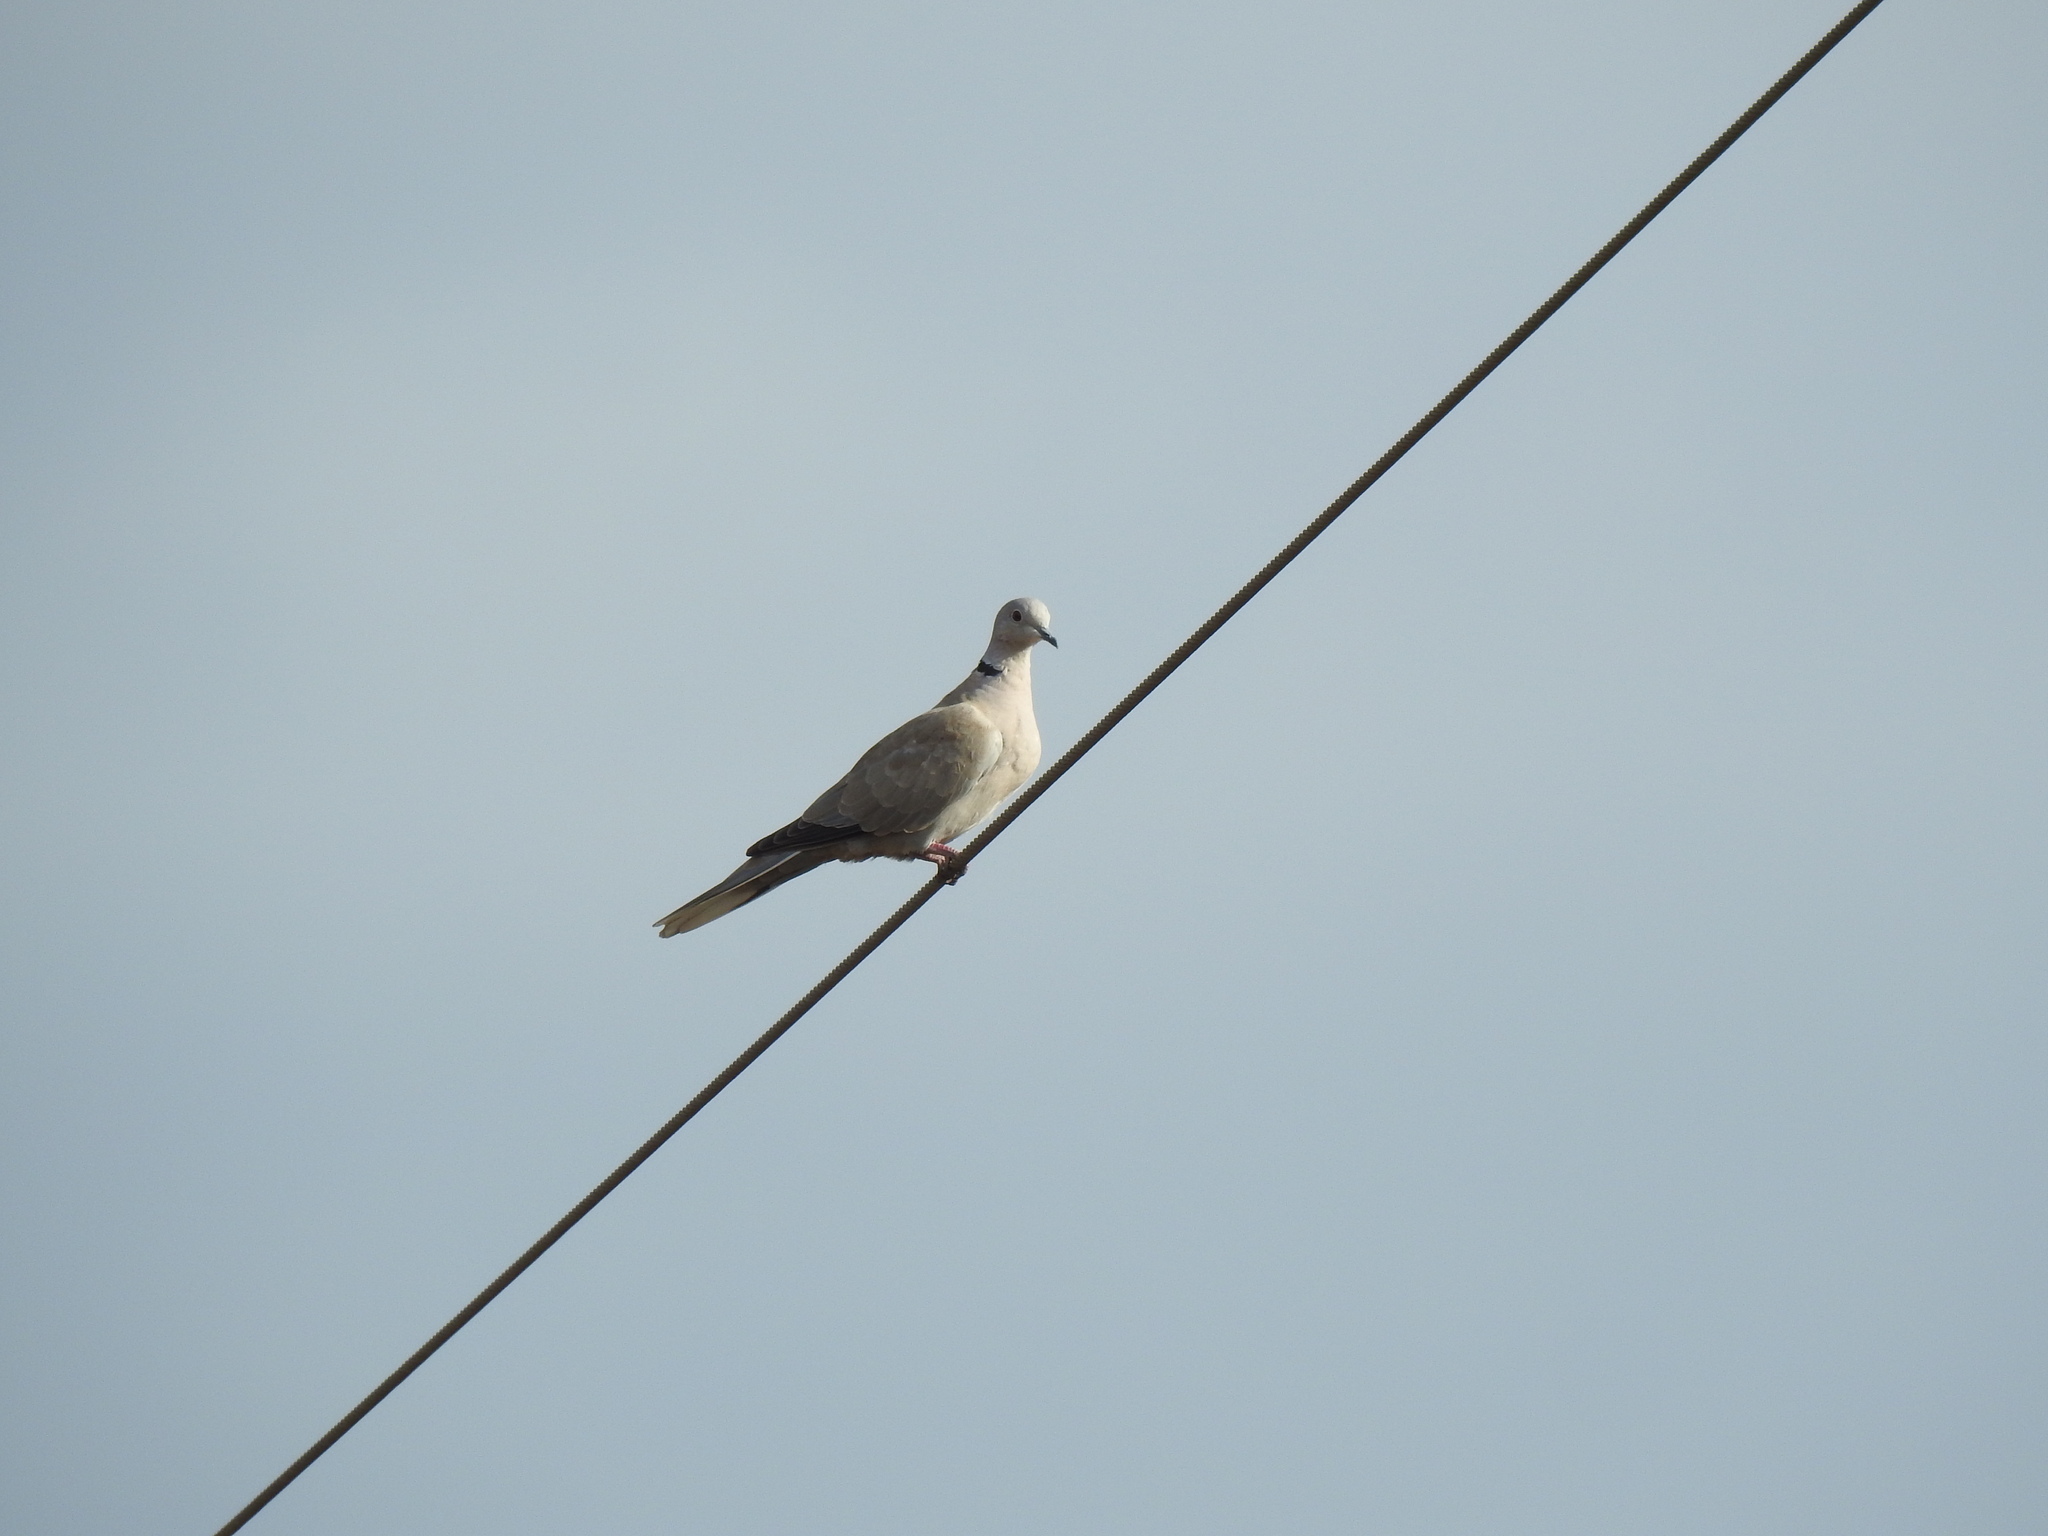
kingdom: Animalia
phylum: Chordata
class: Aves
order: Columbiformes
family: Columbidae
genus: Streptopelia
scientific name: Streptopelia decaocto
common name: Eurasian collared dove
